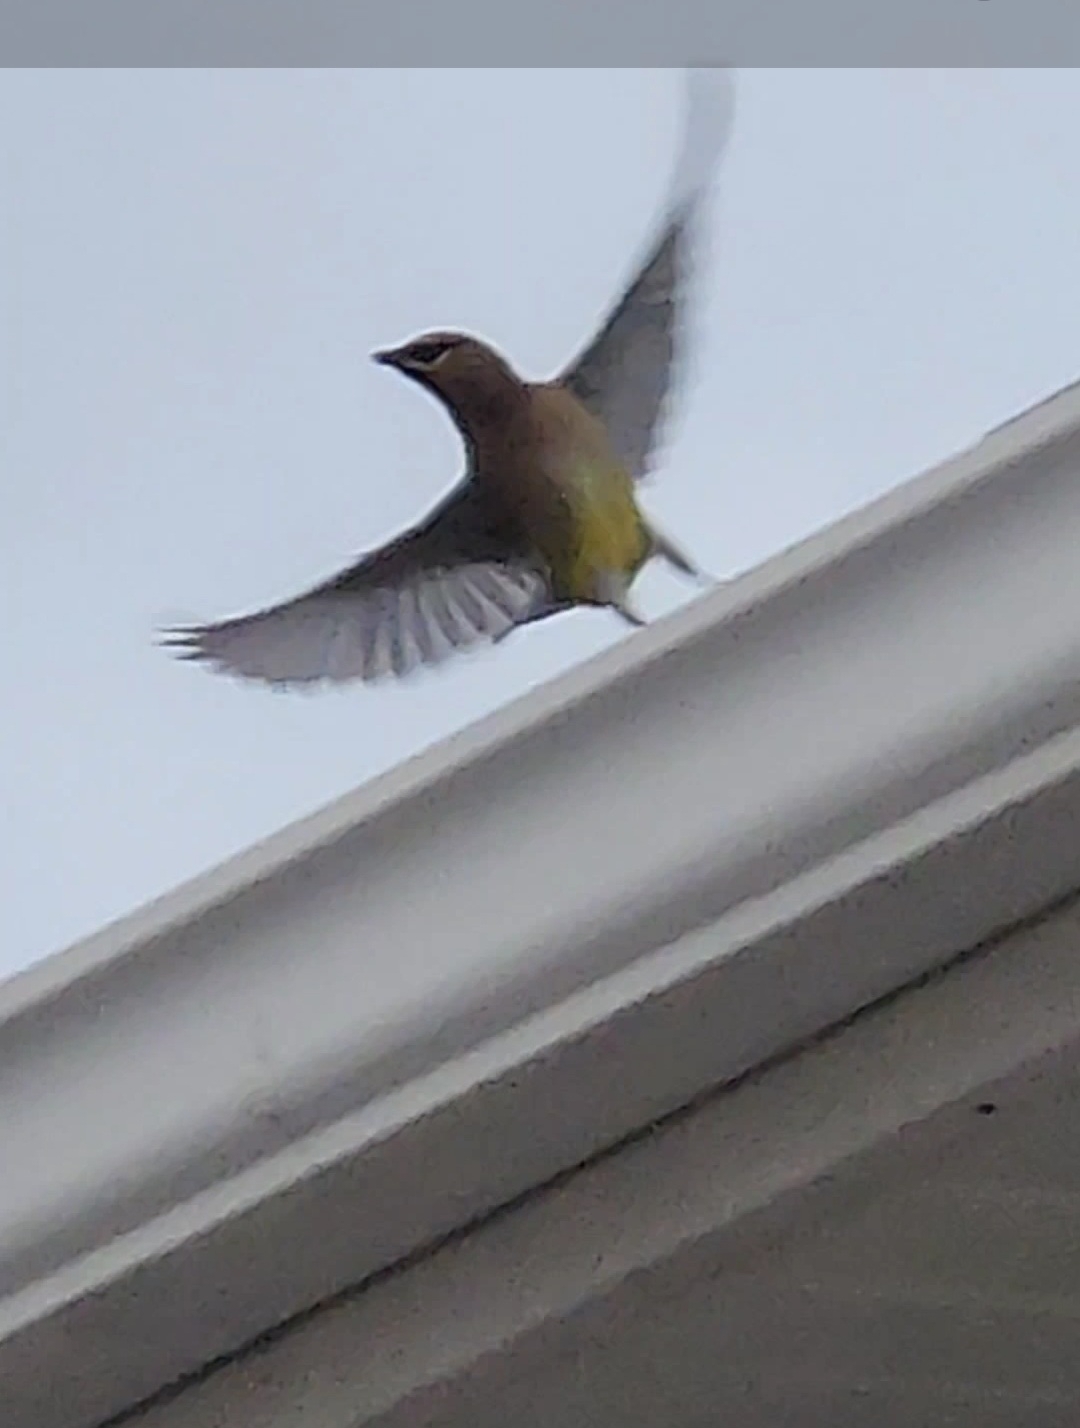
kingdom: Animalia
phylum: Chordata
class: Aves
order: Passeriformes
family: Bombycillidae
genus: Bombycilla
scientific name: Bombycilla cedrorum
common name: Cedar waxwing
